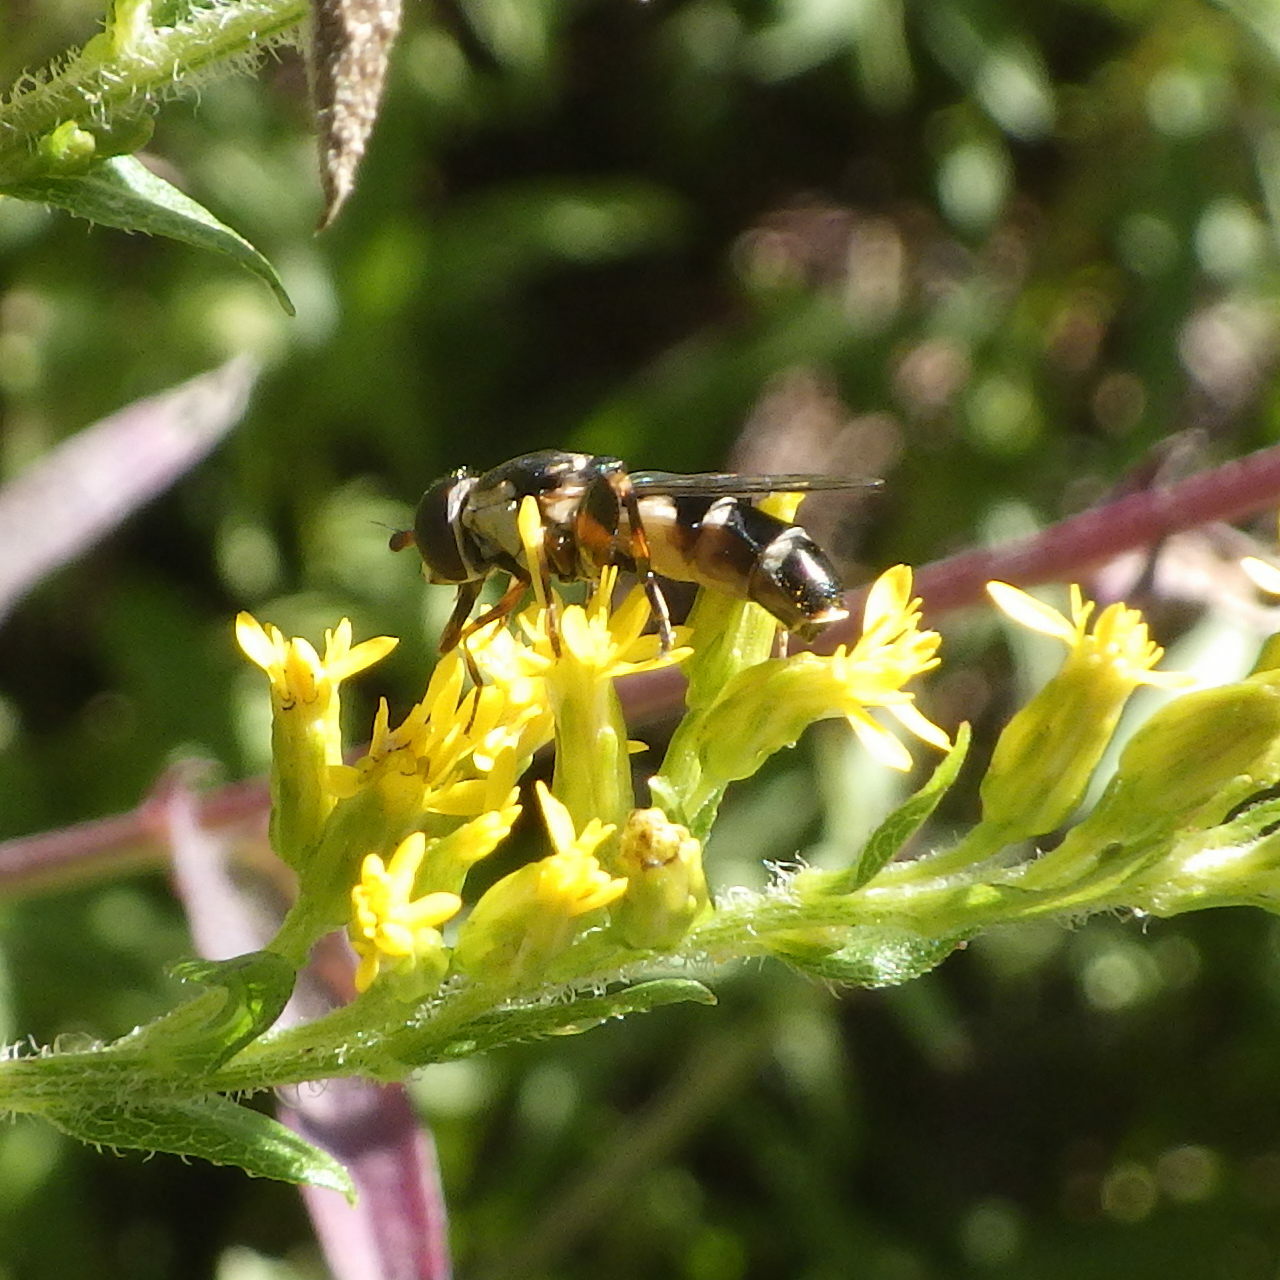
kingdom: Animalia
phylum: Arthropoda
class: Insecta
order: Diptera
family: Syrphidae
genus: Syritta
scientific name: Syritta pipiens
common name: Hover fly
